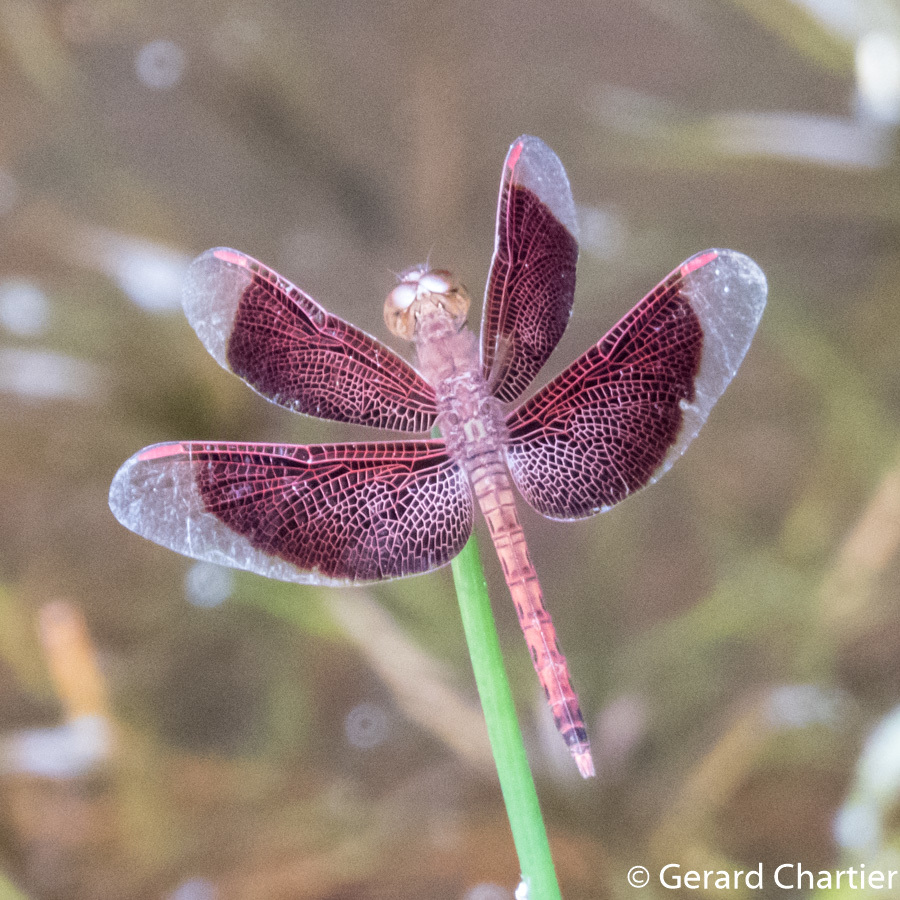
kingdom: Animalia
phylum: Arthropoda
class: Insecta
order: Odonata
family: Libellulidae
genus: Neurothemis
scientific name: Neurothemis fluctuans
